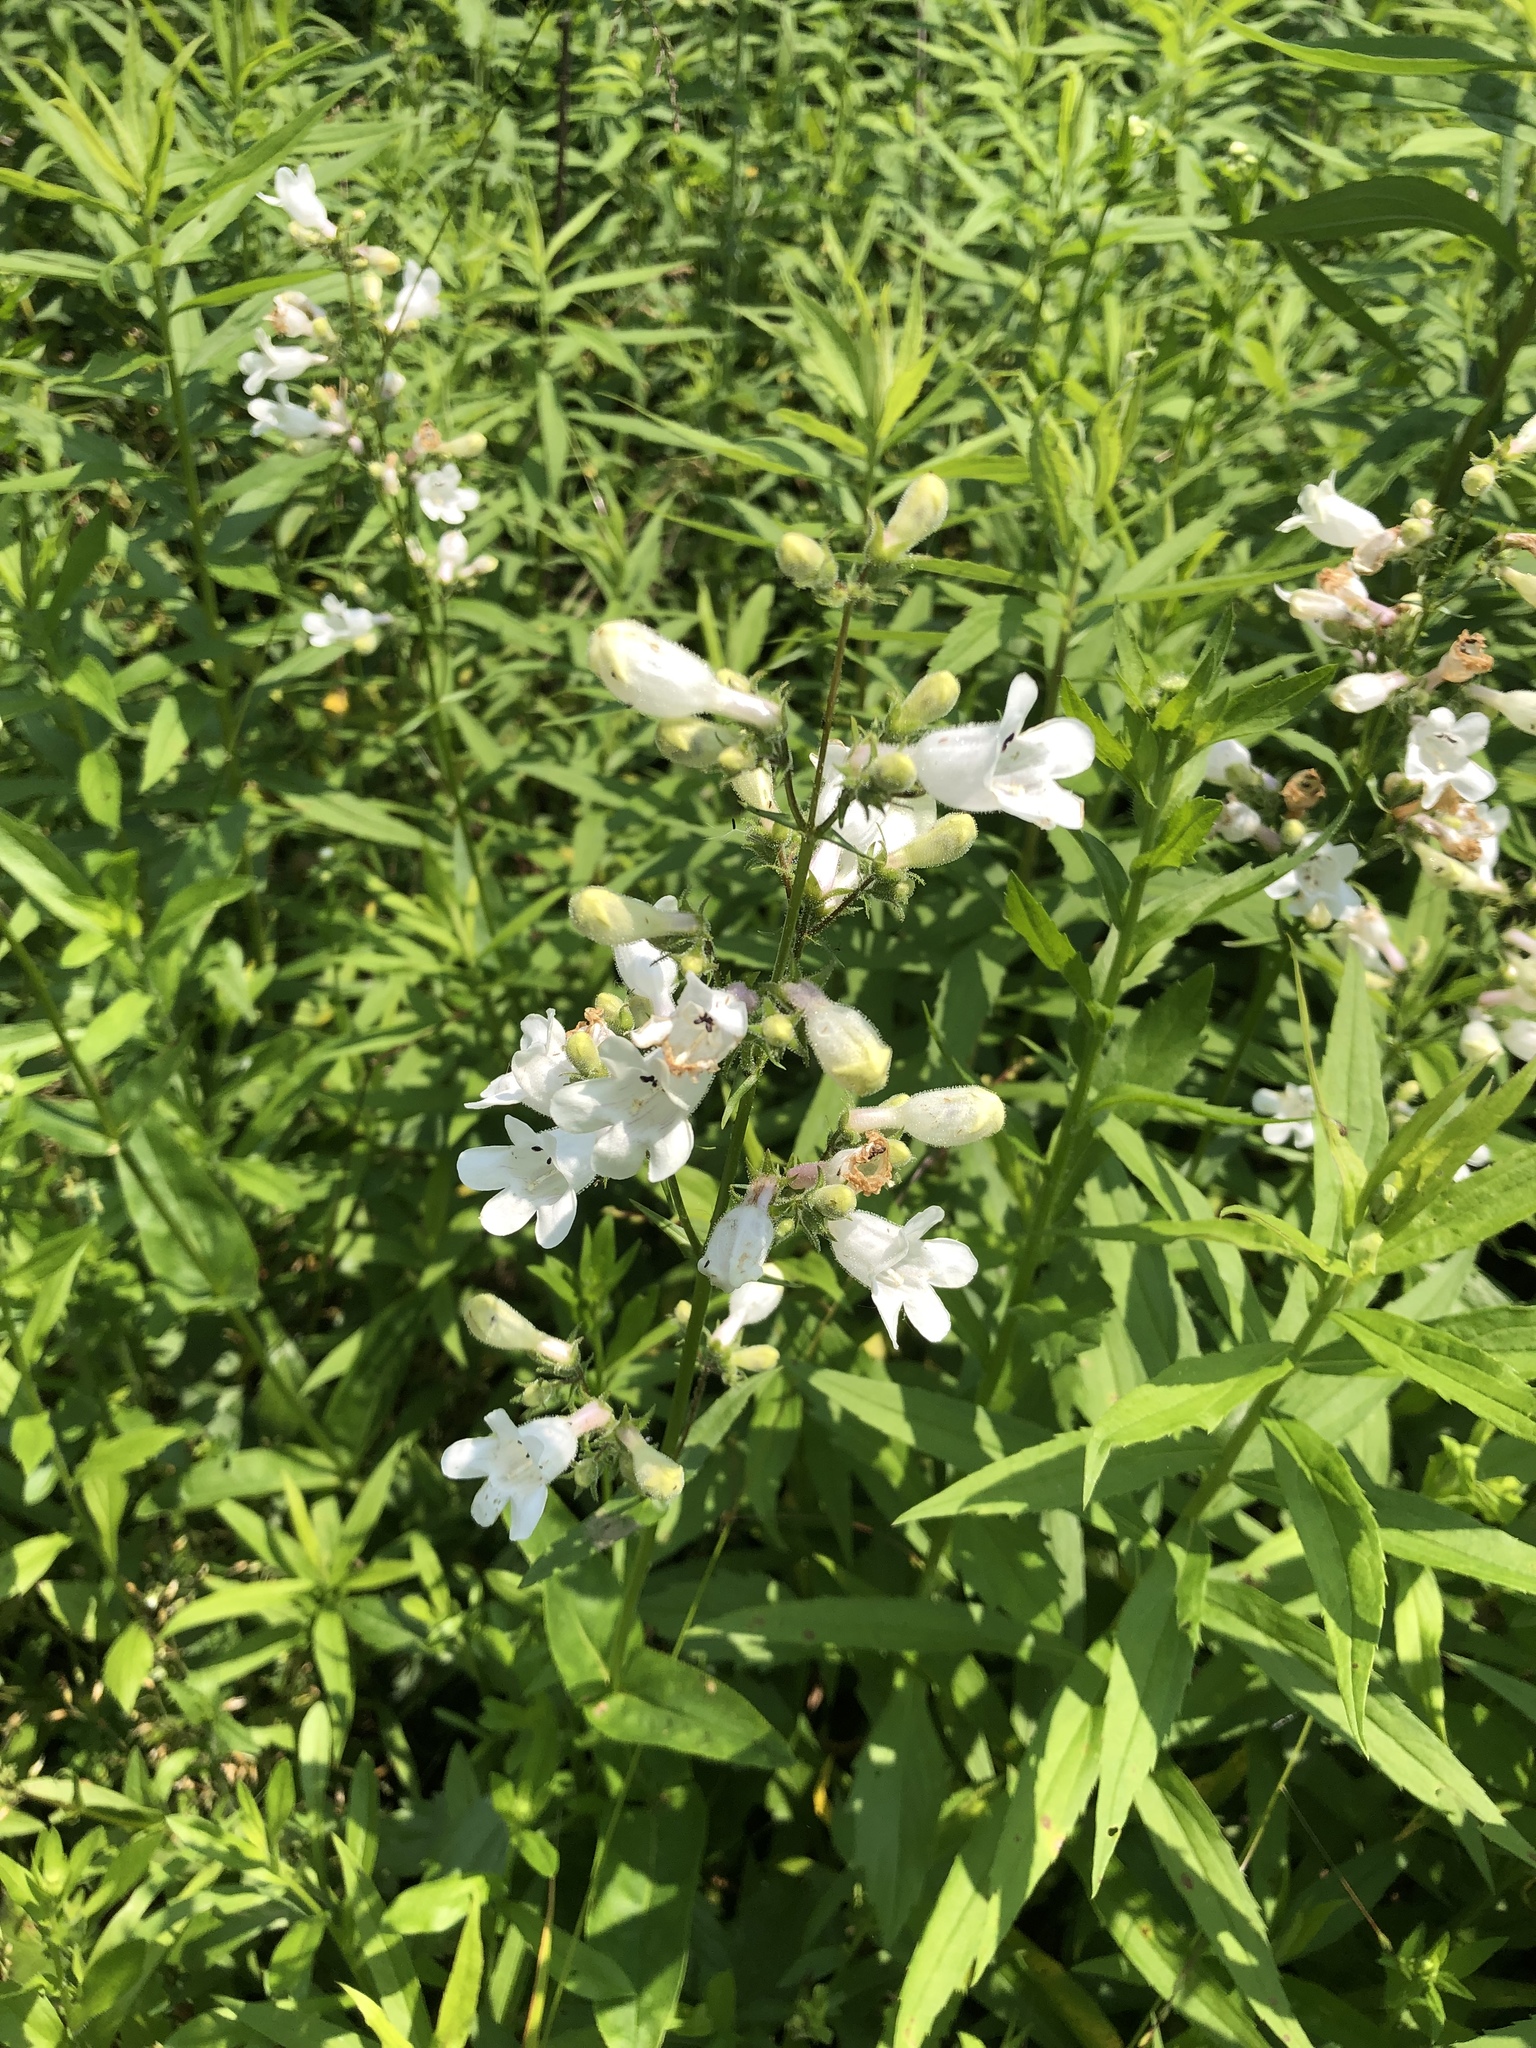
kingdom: Plantae
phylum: Tracheophyta
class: Magnoliopsida
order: Lamiales
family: Plantaginaceae
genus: Penstemon
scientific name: Penstemon digitalis
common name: Foxglove beardtongue
